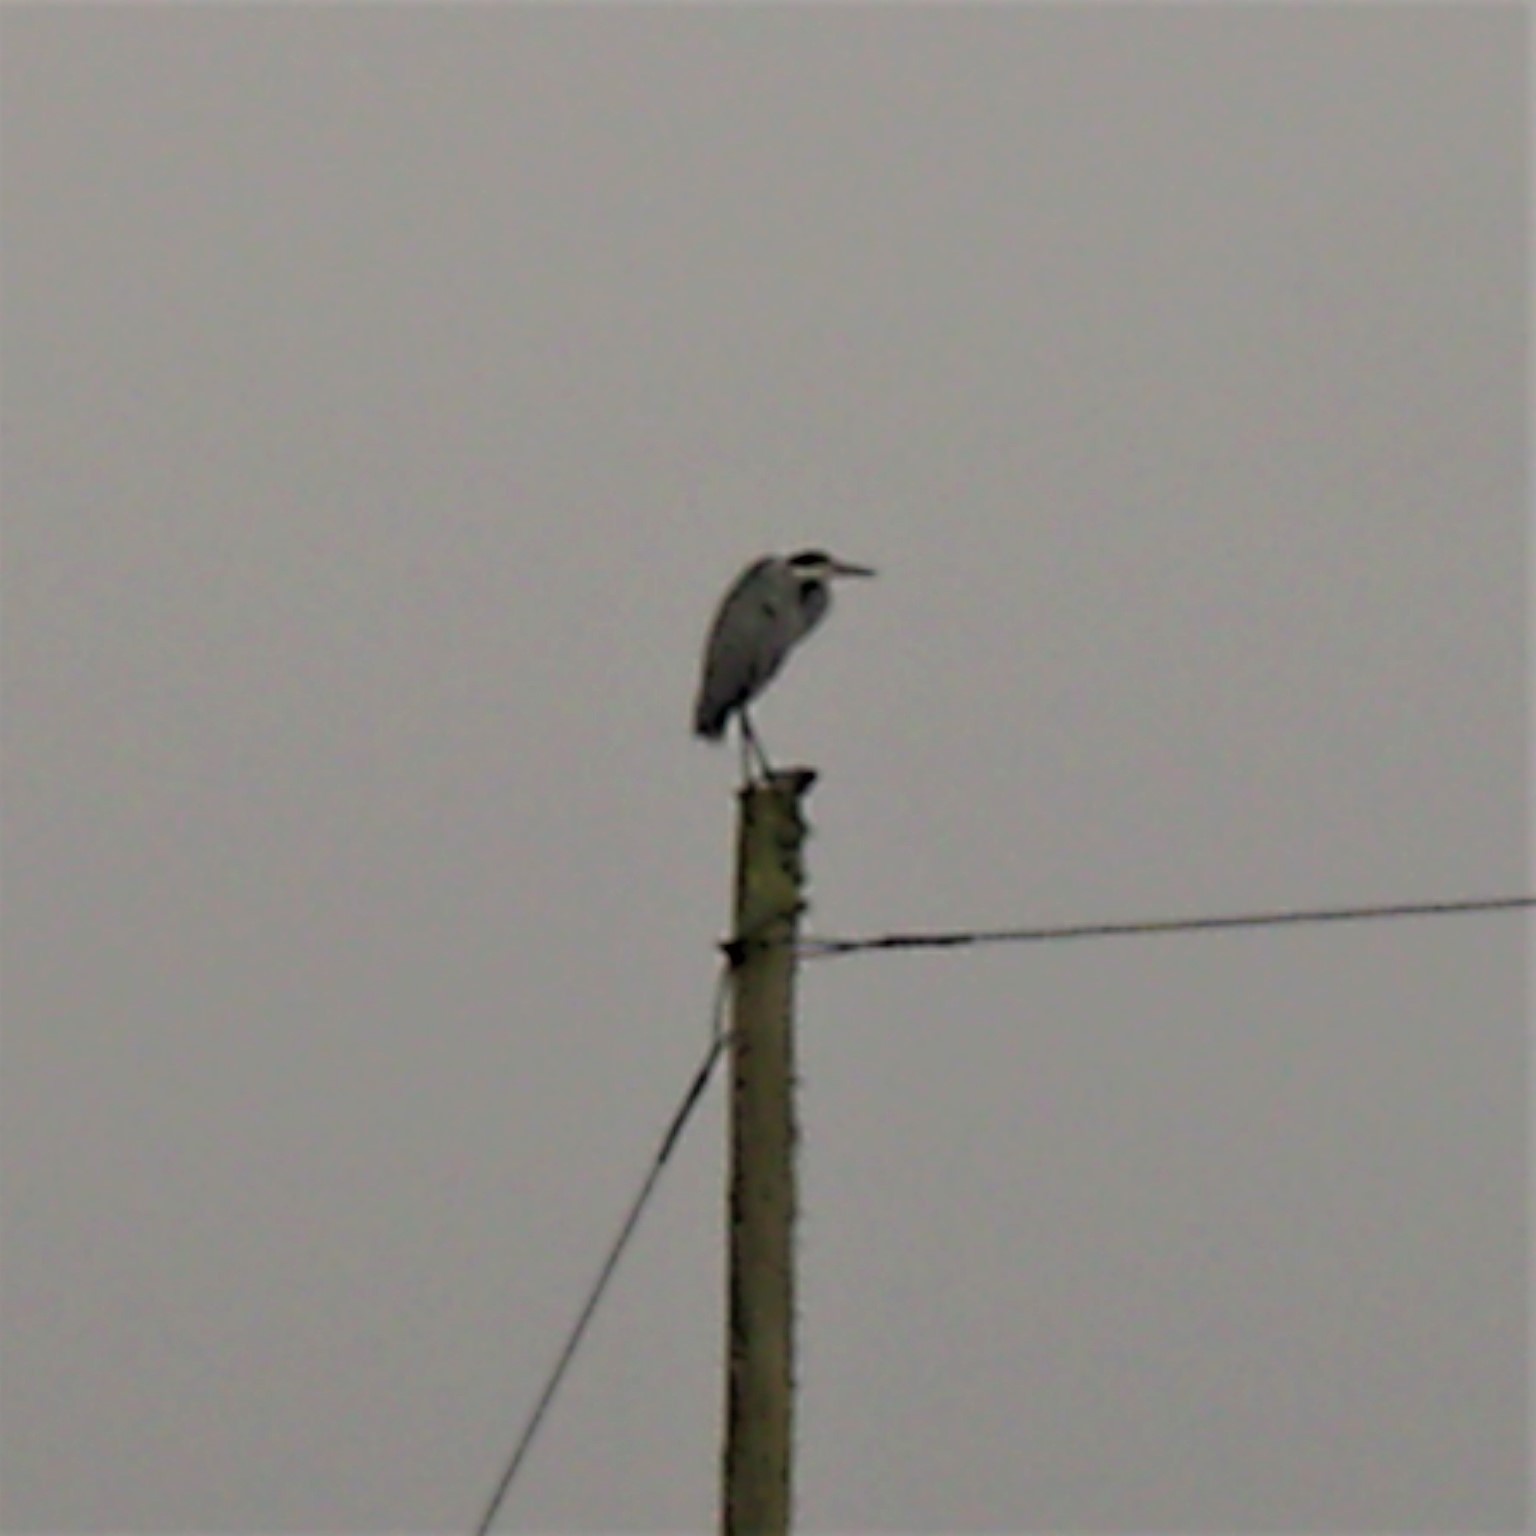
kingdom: Animalia
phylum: Chordata
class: Aves
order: Pelecaniformes
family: Ardeidae
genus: Ardea
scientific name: Ardea melanocephala
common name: Black-headed heron
